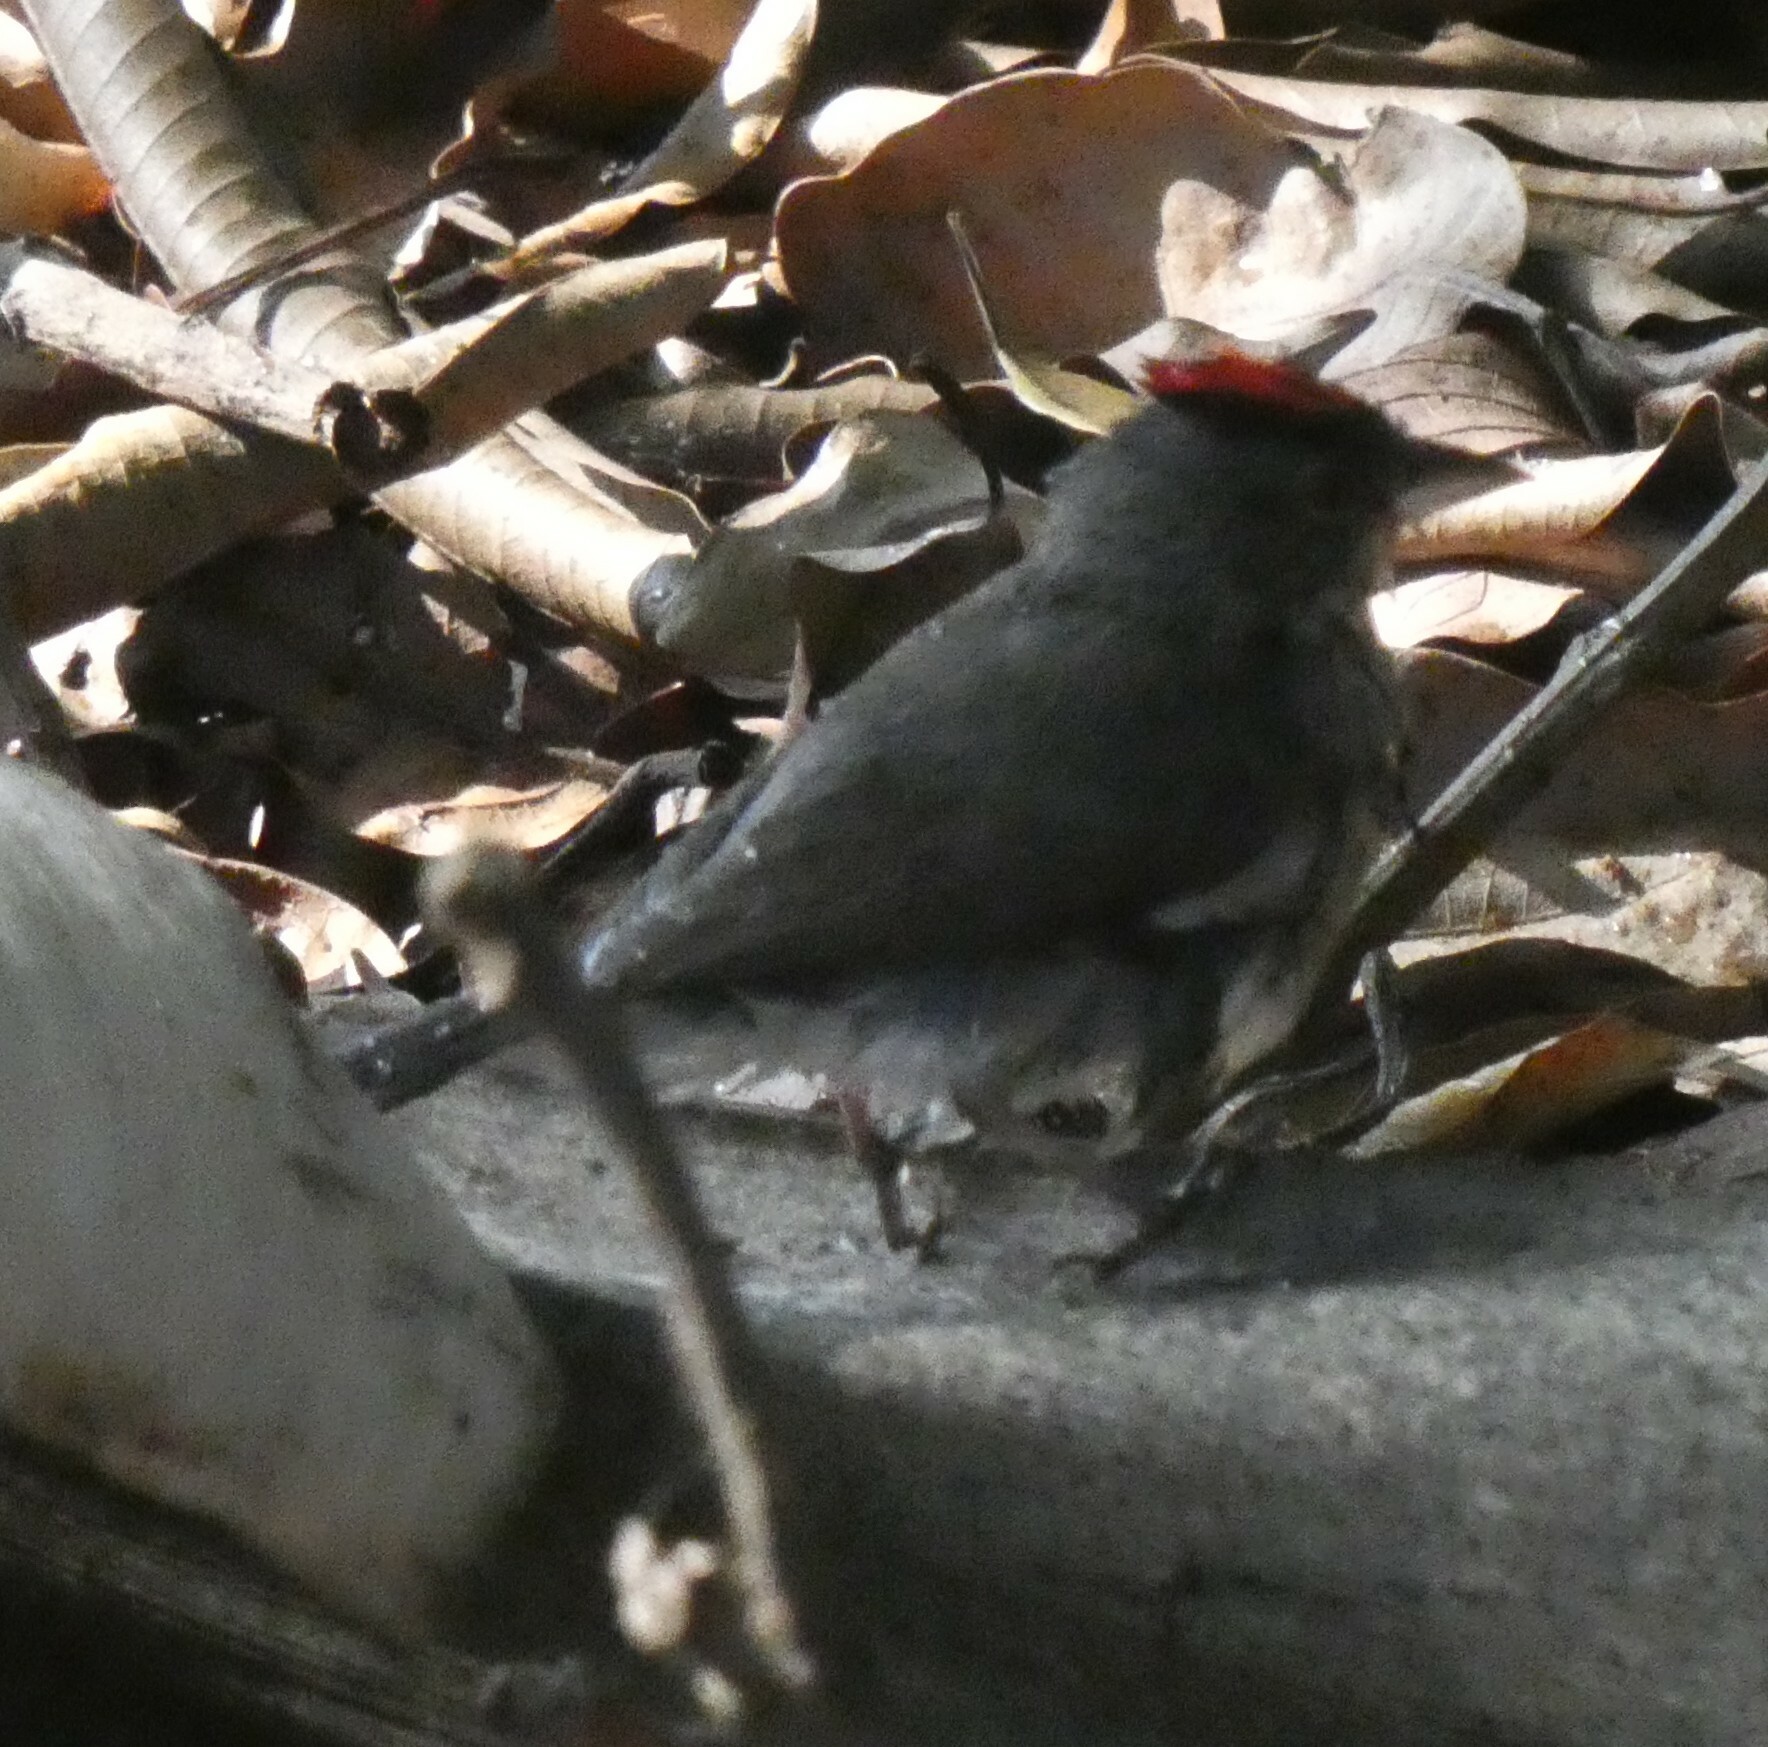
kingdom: Animalia
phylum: Chordata
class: Aves
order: Passeriformes
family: Thraupidae
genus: Coryphospingus
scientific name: Coryphospingus pileatus
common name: Grey pileated finch
